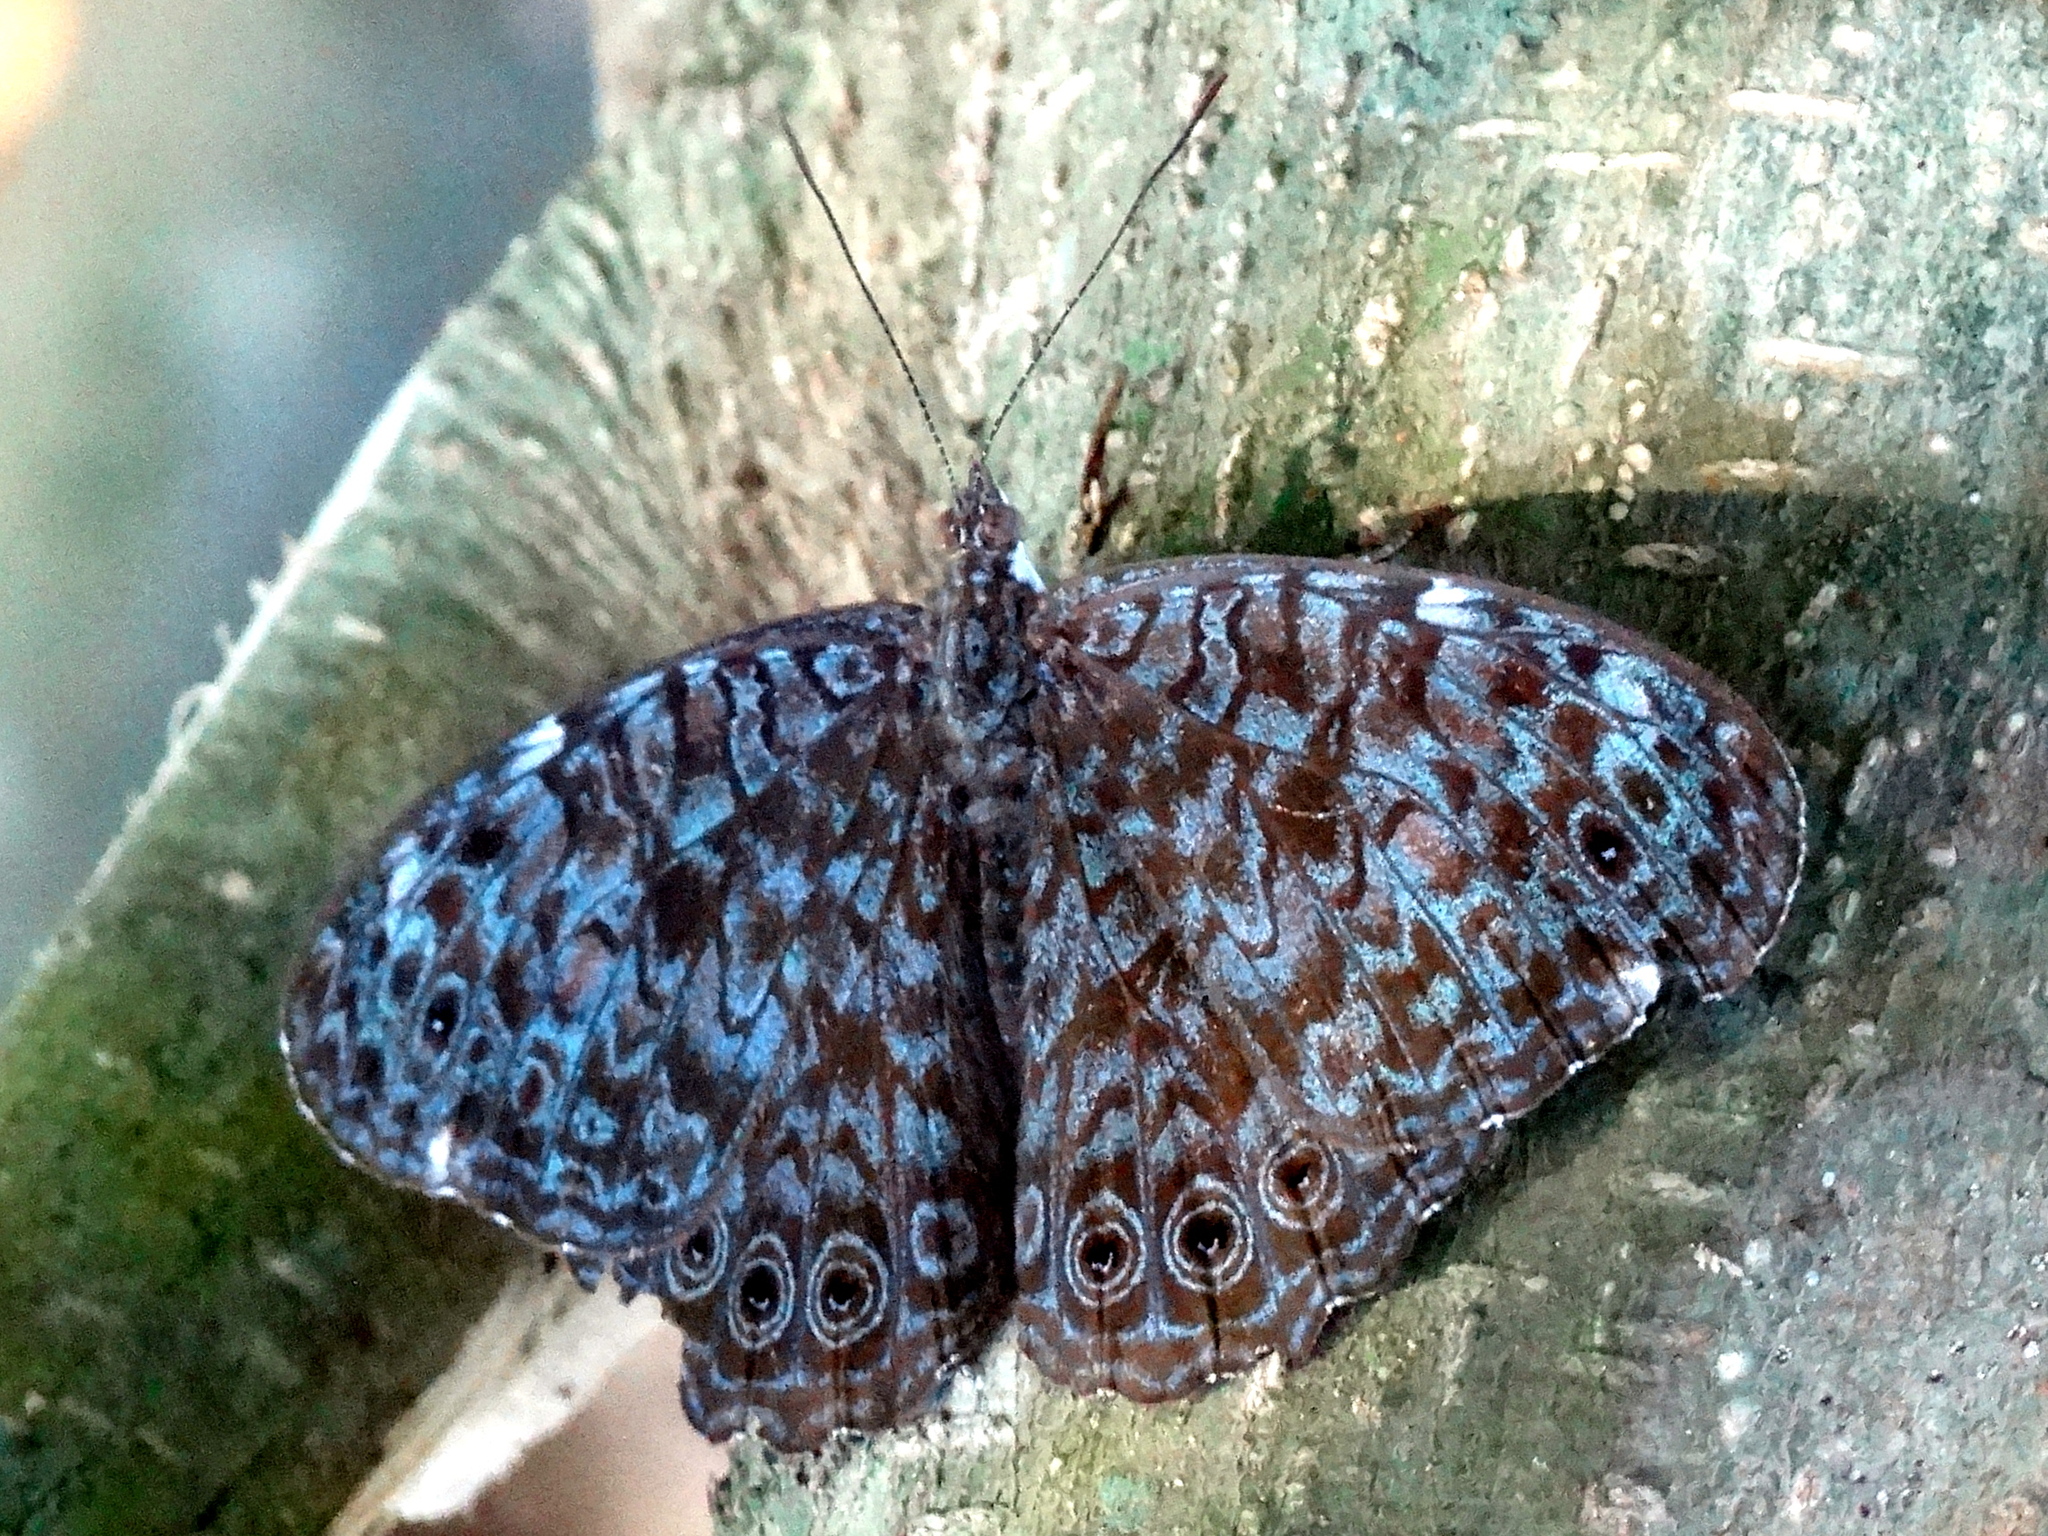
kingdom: Animalia
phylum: Arthropoda
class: Insecta
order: Lepidoptera
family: Nymphalidae
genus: Hamadryas
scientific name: Hamadryas lelaps
